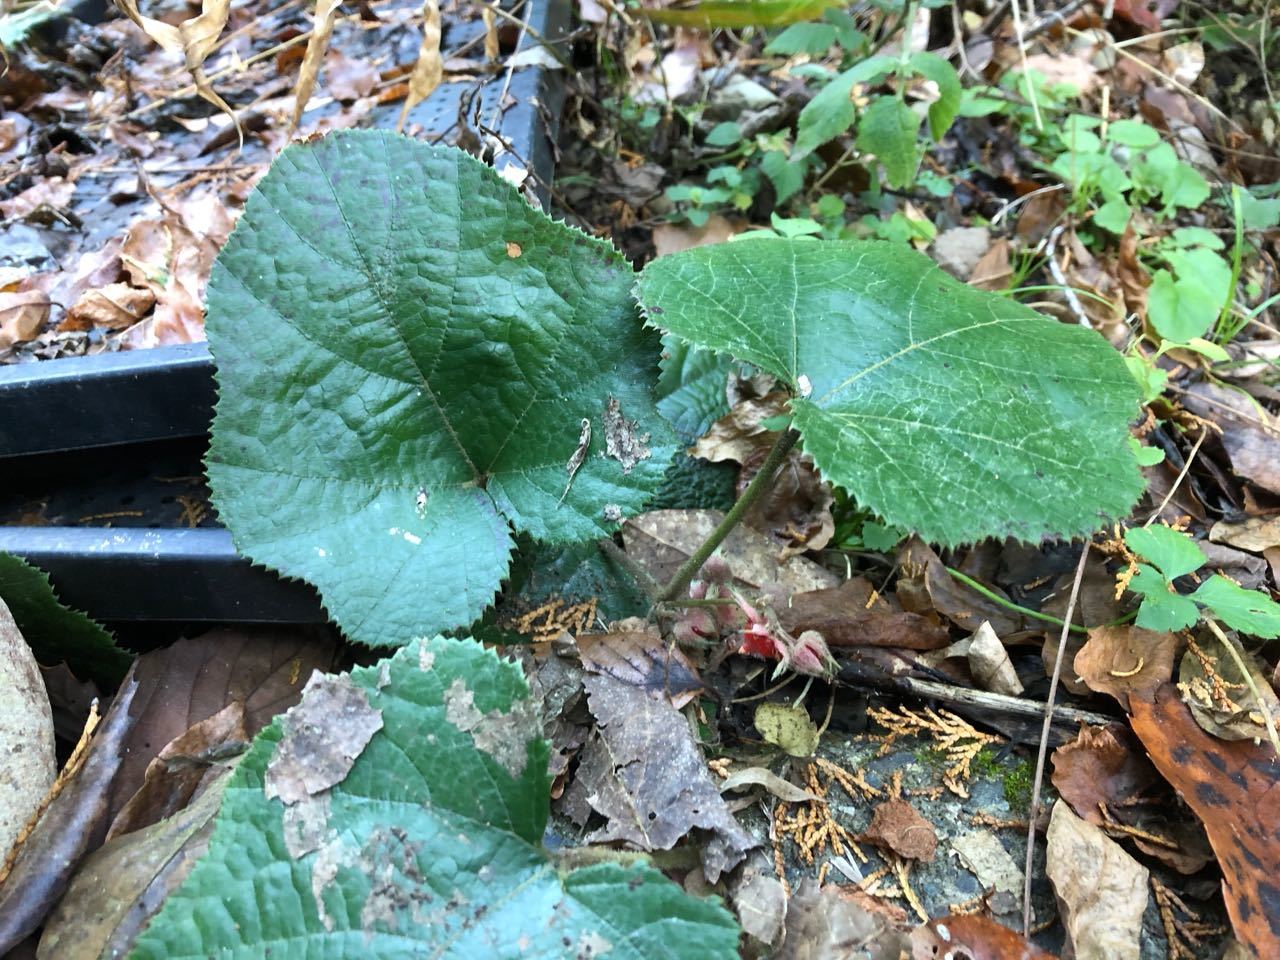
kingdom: Plantae
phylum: Tracheophyta
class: Magnoliopsida
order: Rosales
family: Rosaceae
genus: Rubus
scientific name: Rubus buergeri
